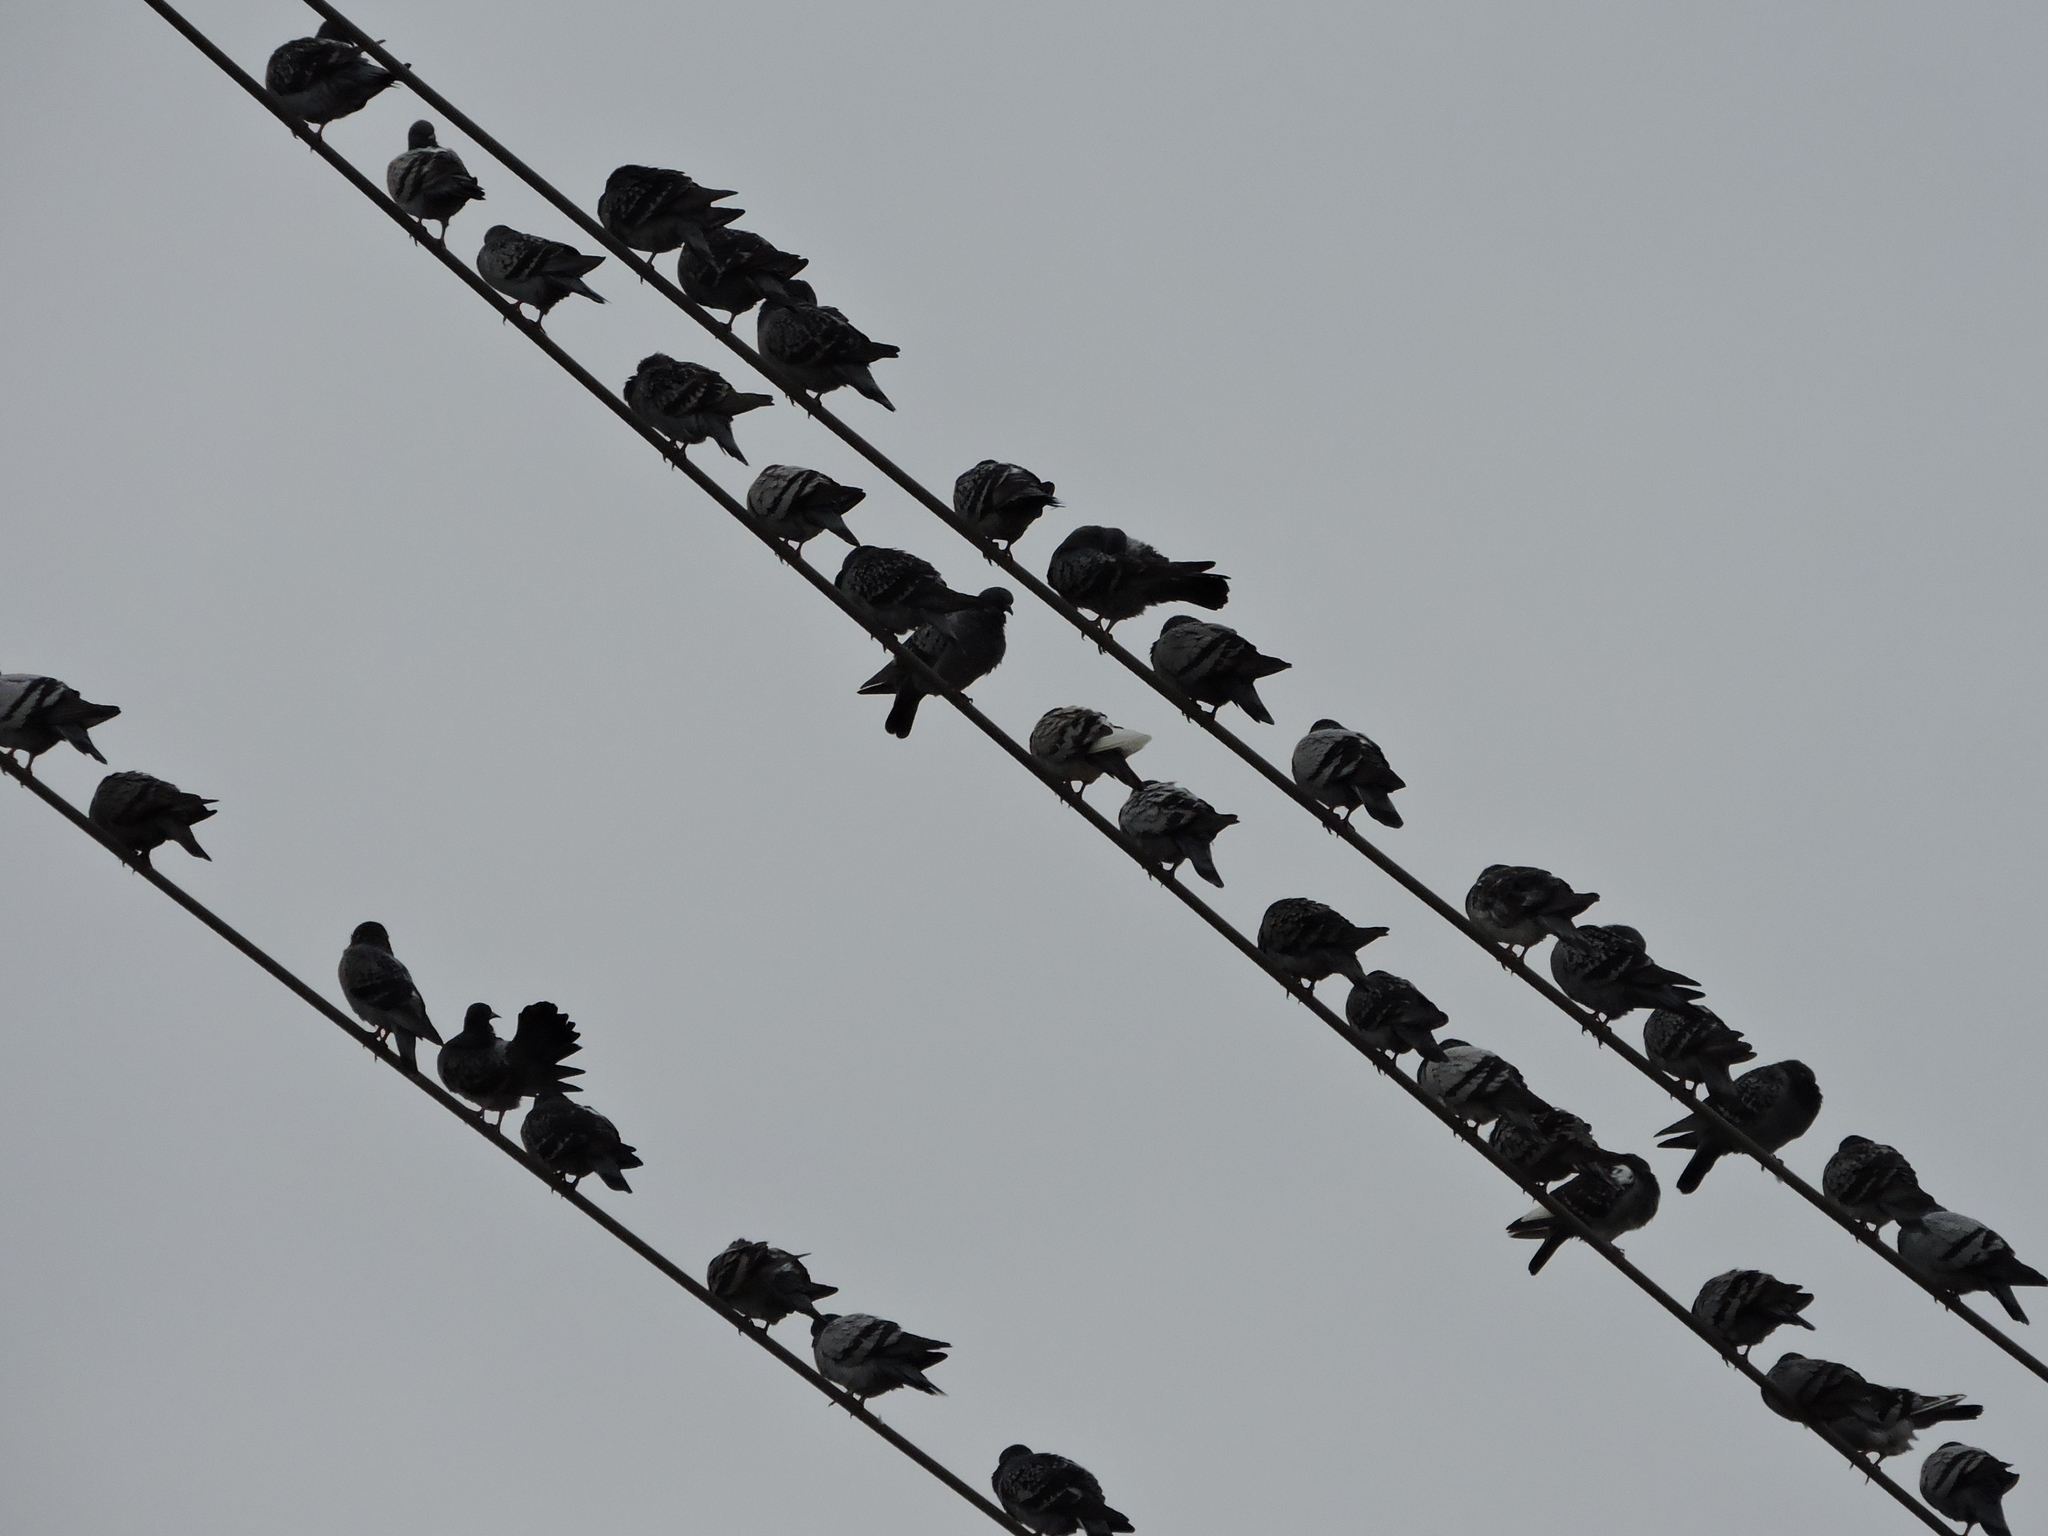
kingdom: Animalia
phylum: Chordata
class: Aves
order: Columbiformes
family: Columbidae
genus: Columba
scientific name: Columba livia
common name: Rock pigeon
